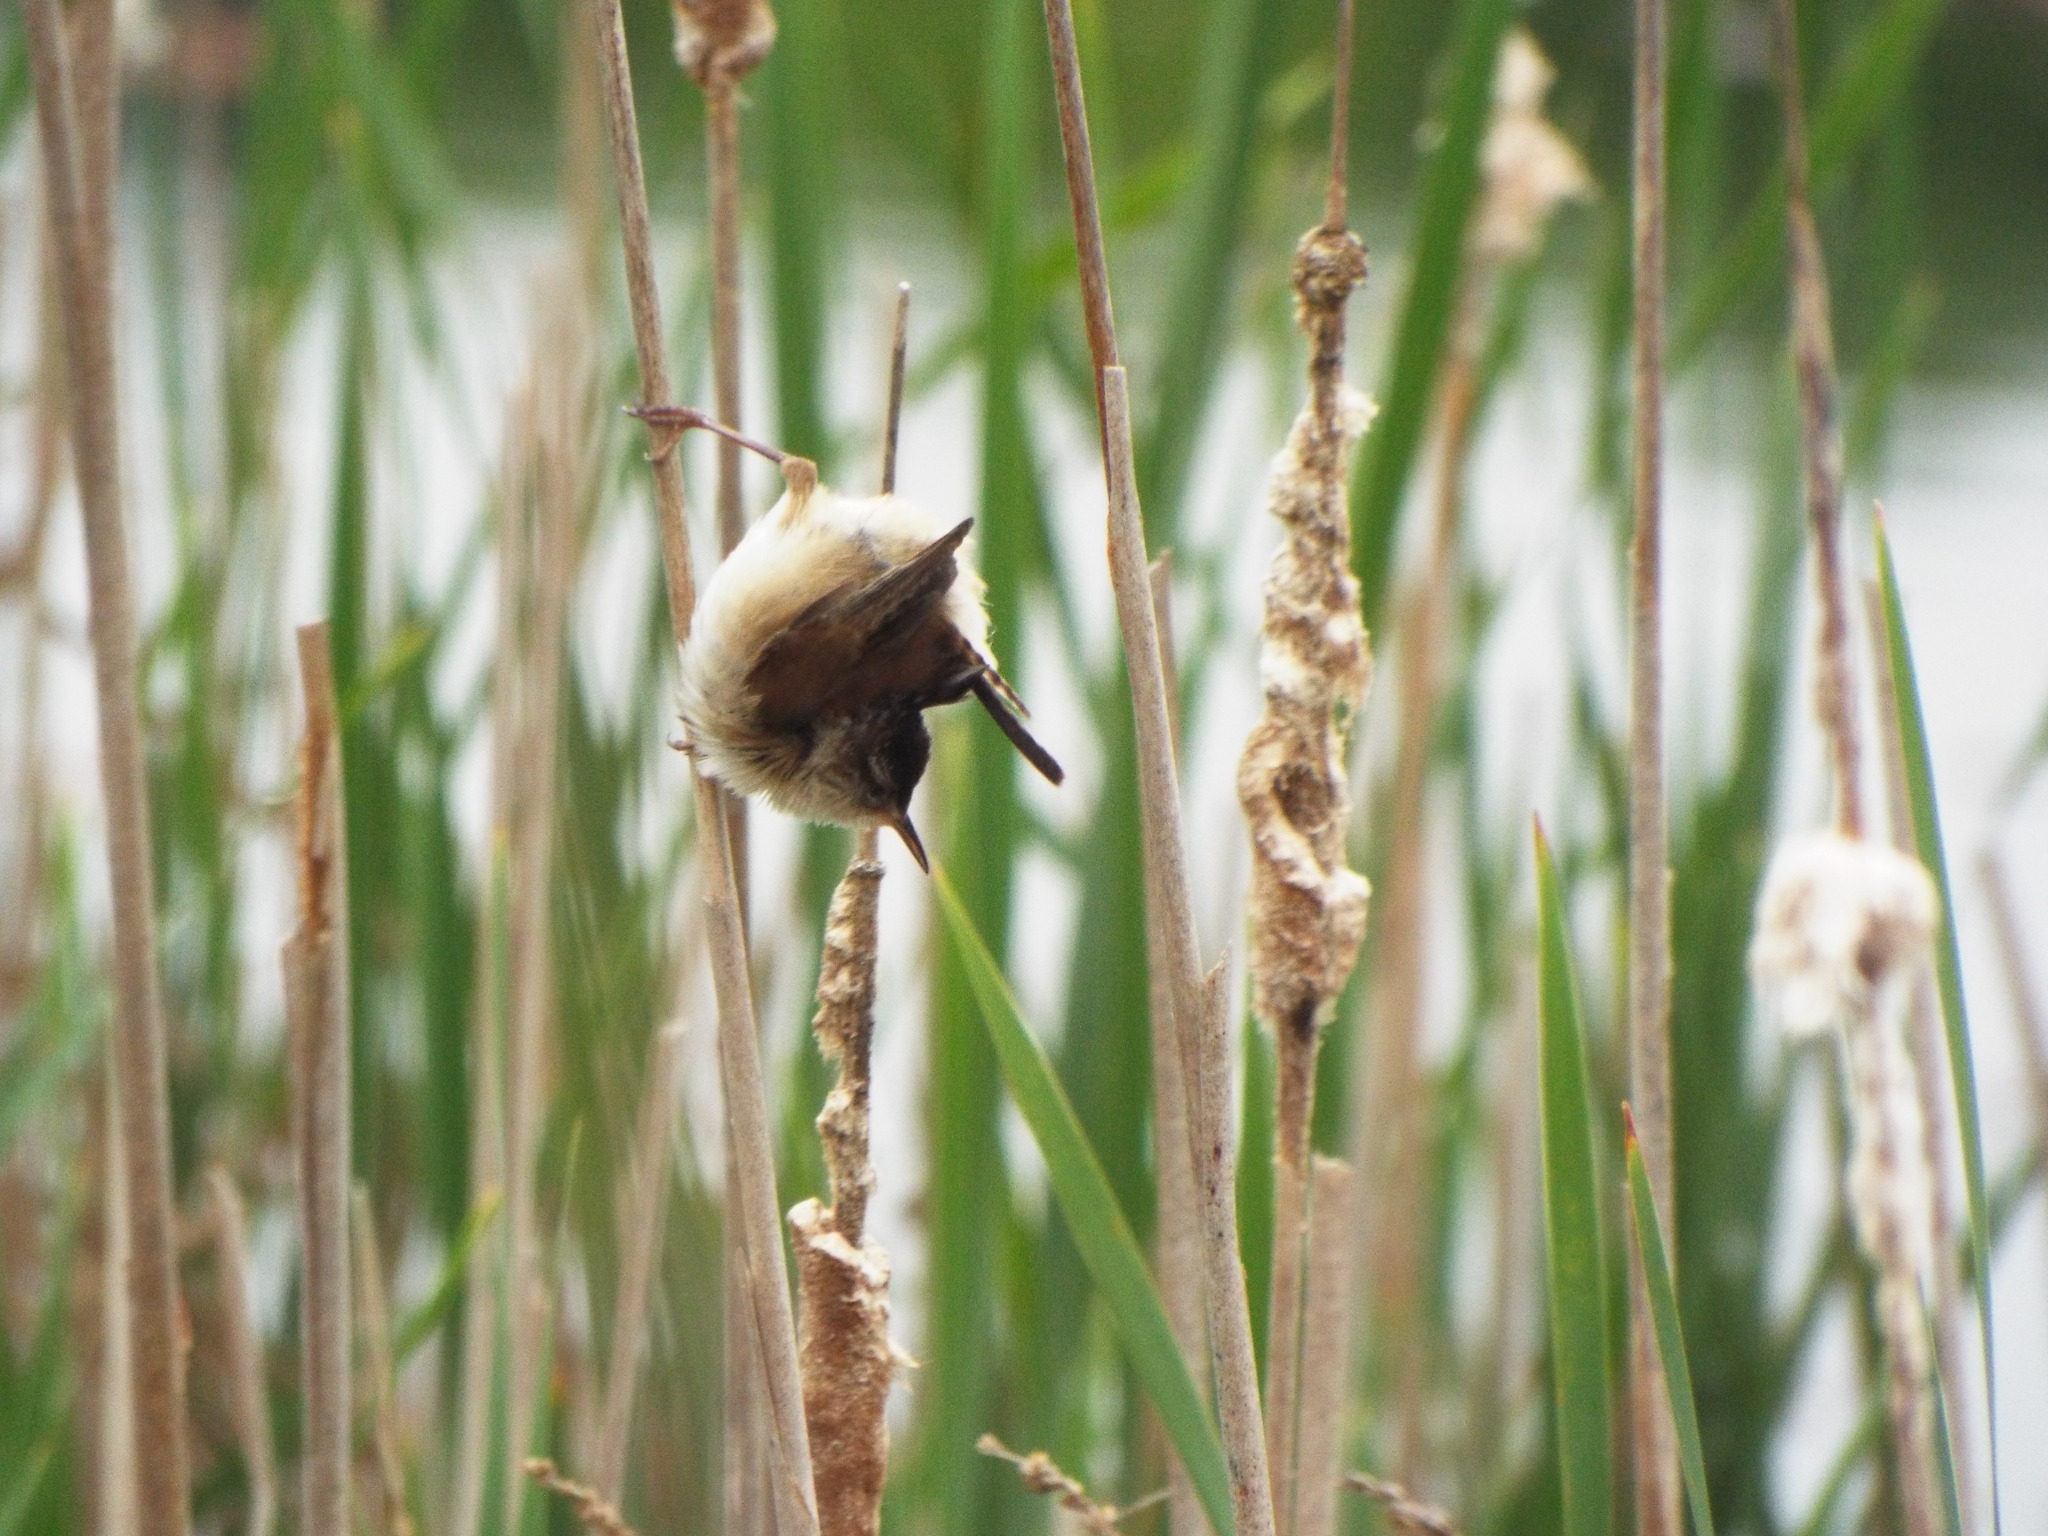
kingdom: Animalia
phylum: Chordata
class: Aves
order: Passeriformes
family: Troglodytidae
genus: Cistothorus
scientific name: Cistothorus palustris
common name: Marsh wren
